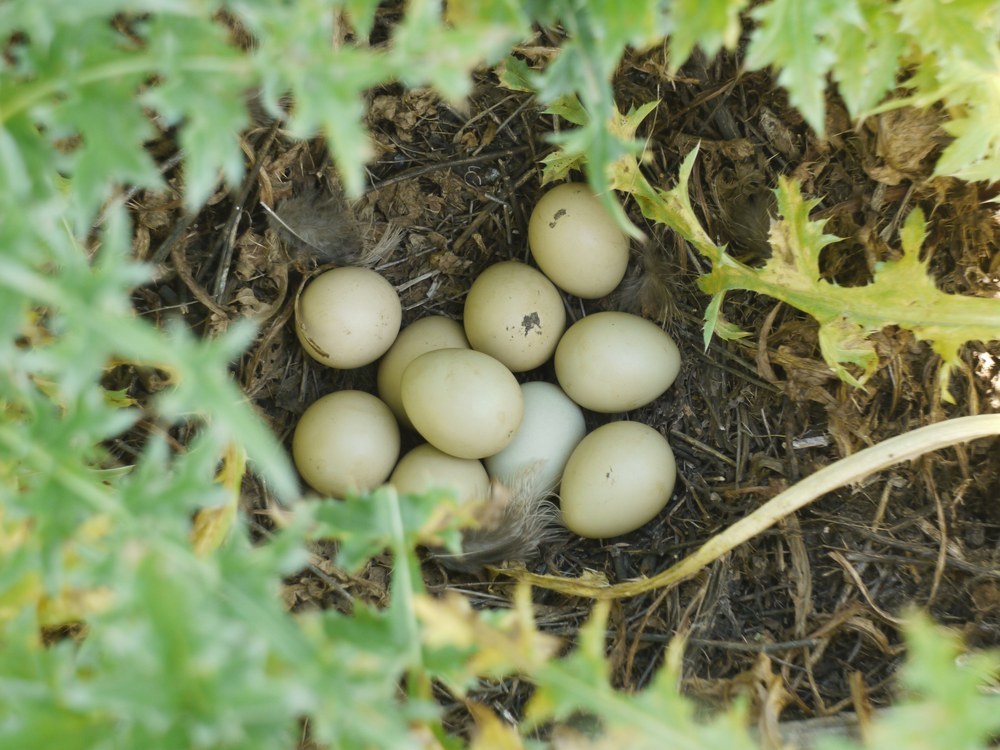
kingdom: Animalia
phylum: Chordata
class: Aves
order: Galliformes
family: Phasianidae
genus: Phasianus
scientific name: Phasianus colchicus
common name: Common pheasant
